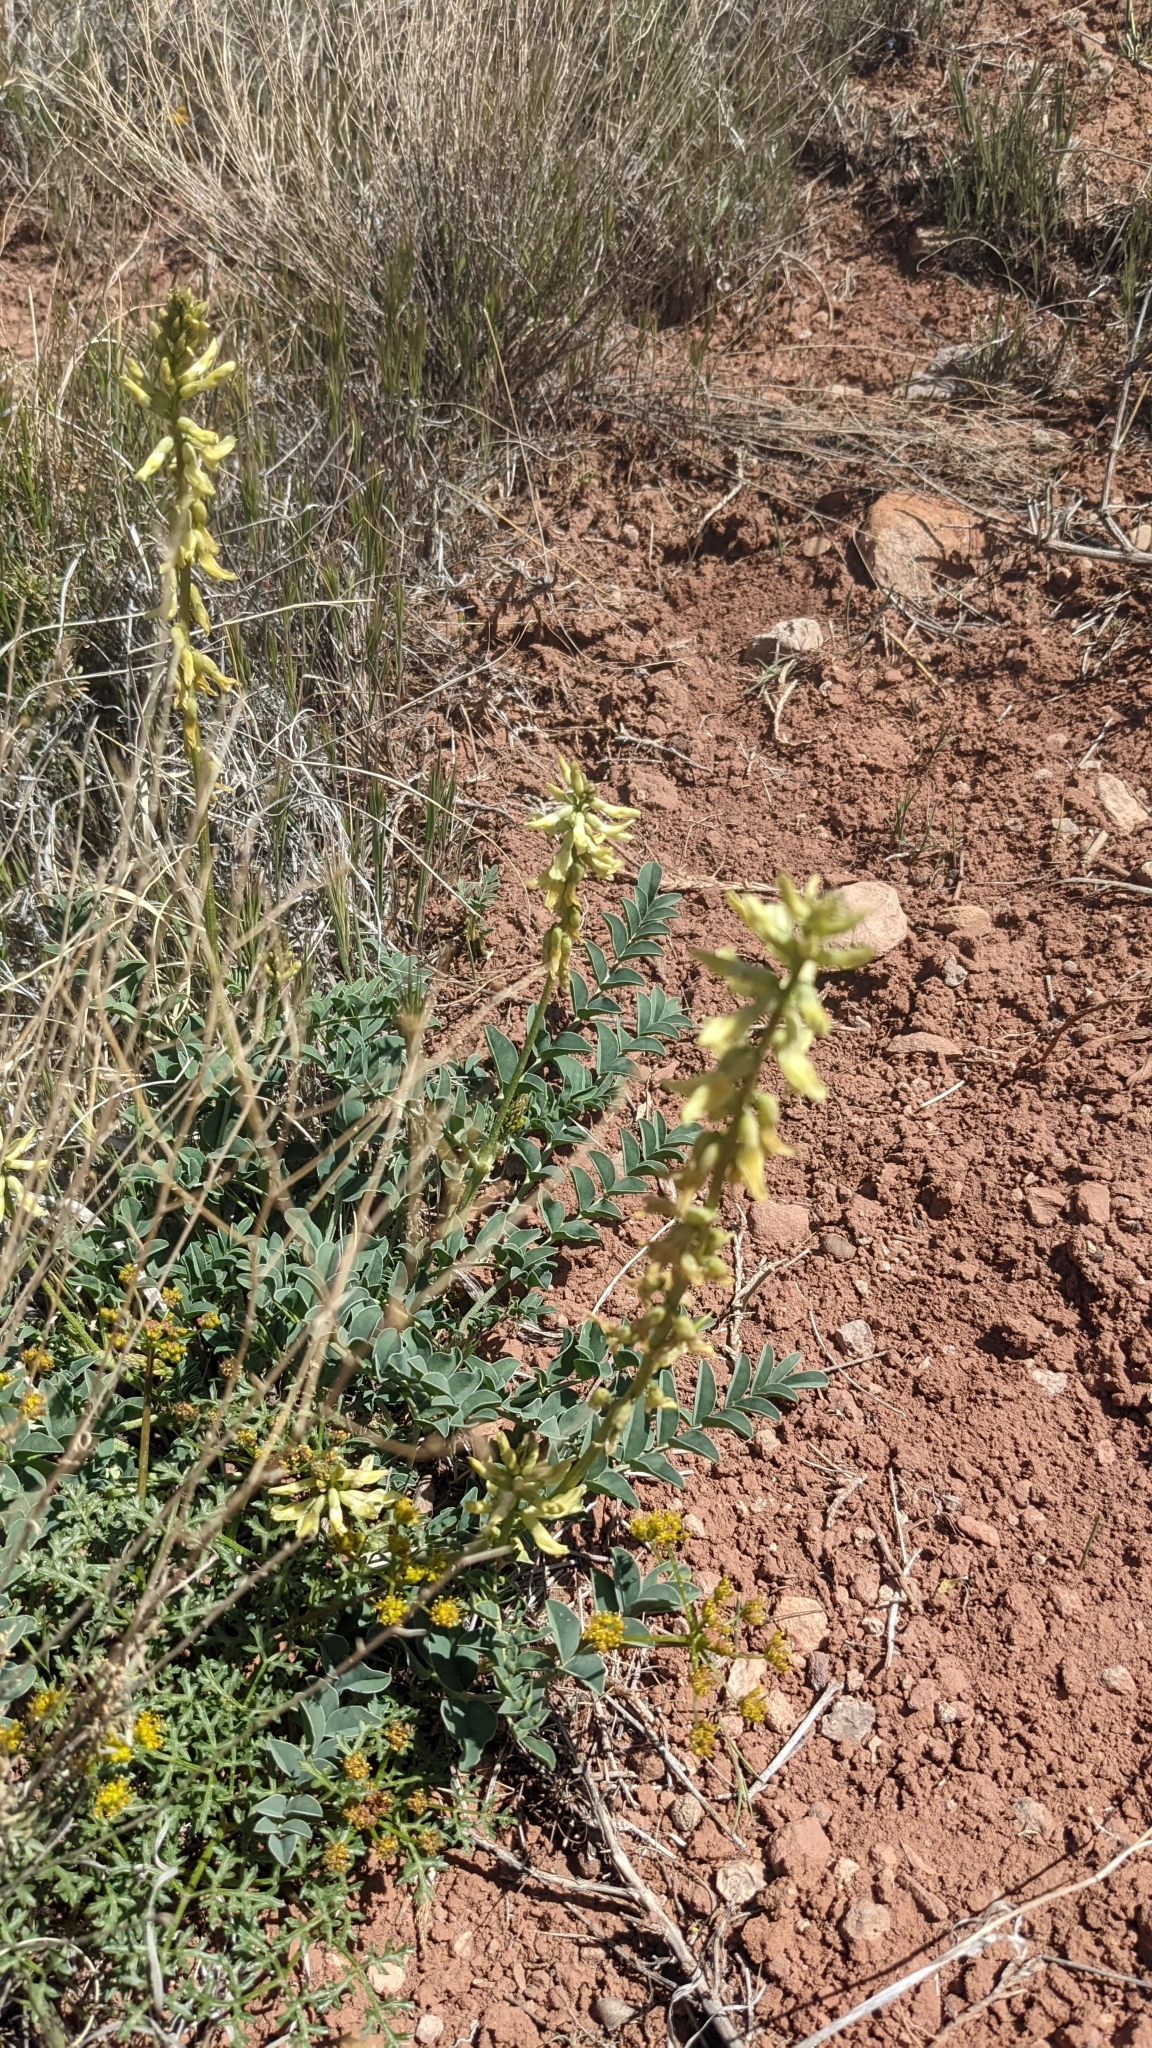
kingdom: Plantae
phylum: Tracheophyta
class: Magnoliopsida
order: Fabales
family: Fabaceae
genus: Astragalus
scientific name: Astragalus ampullarioides
